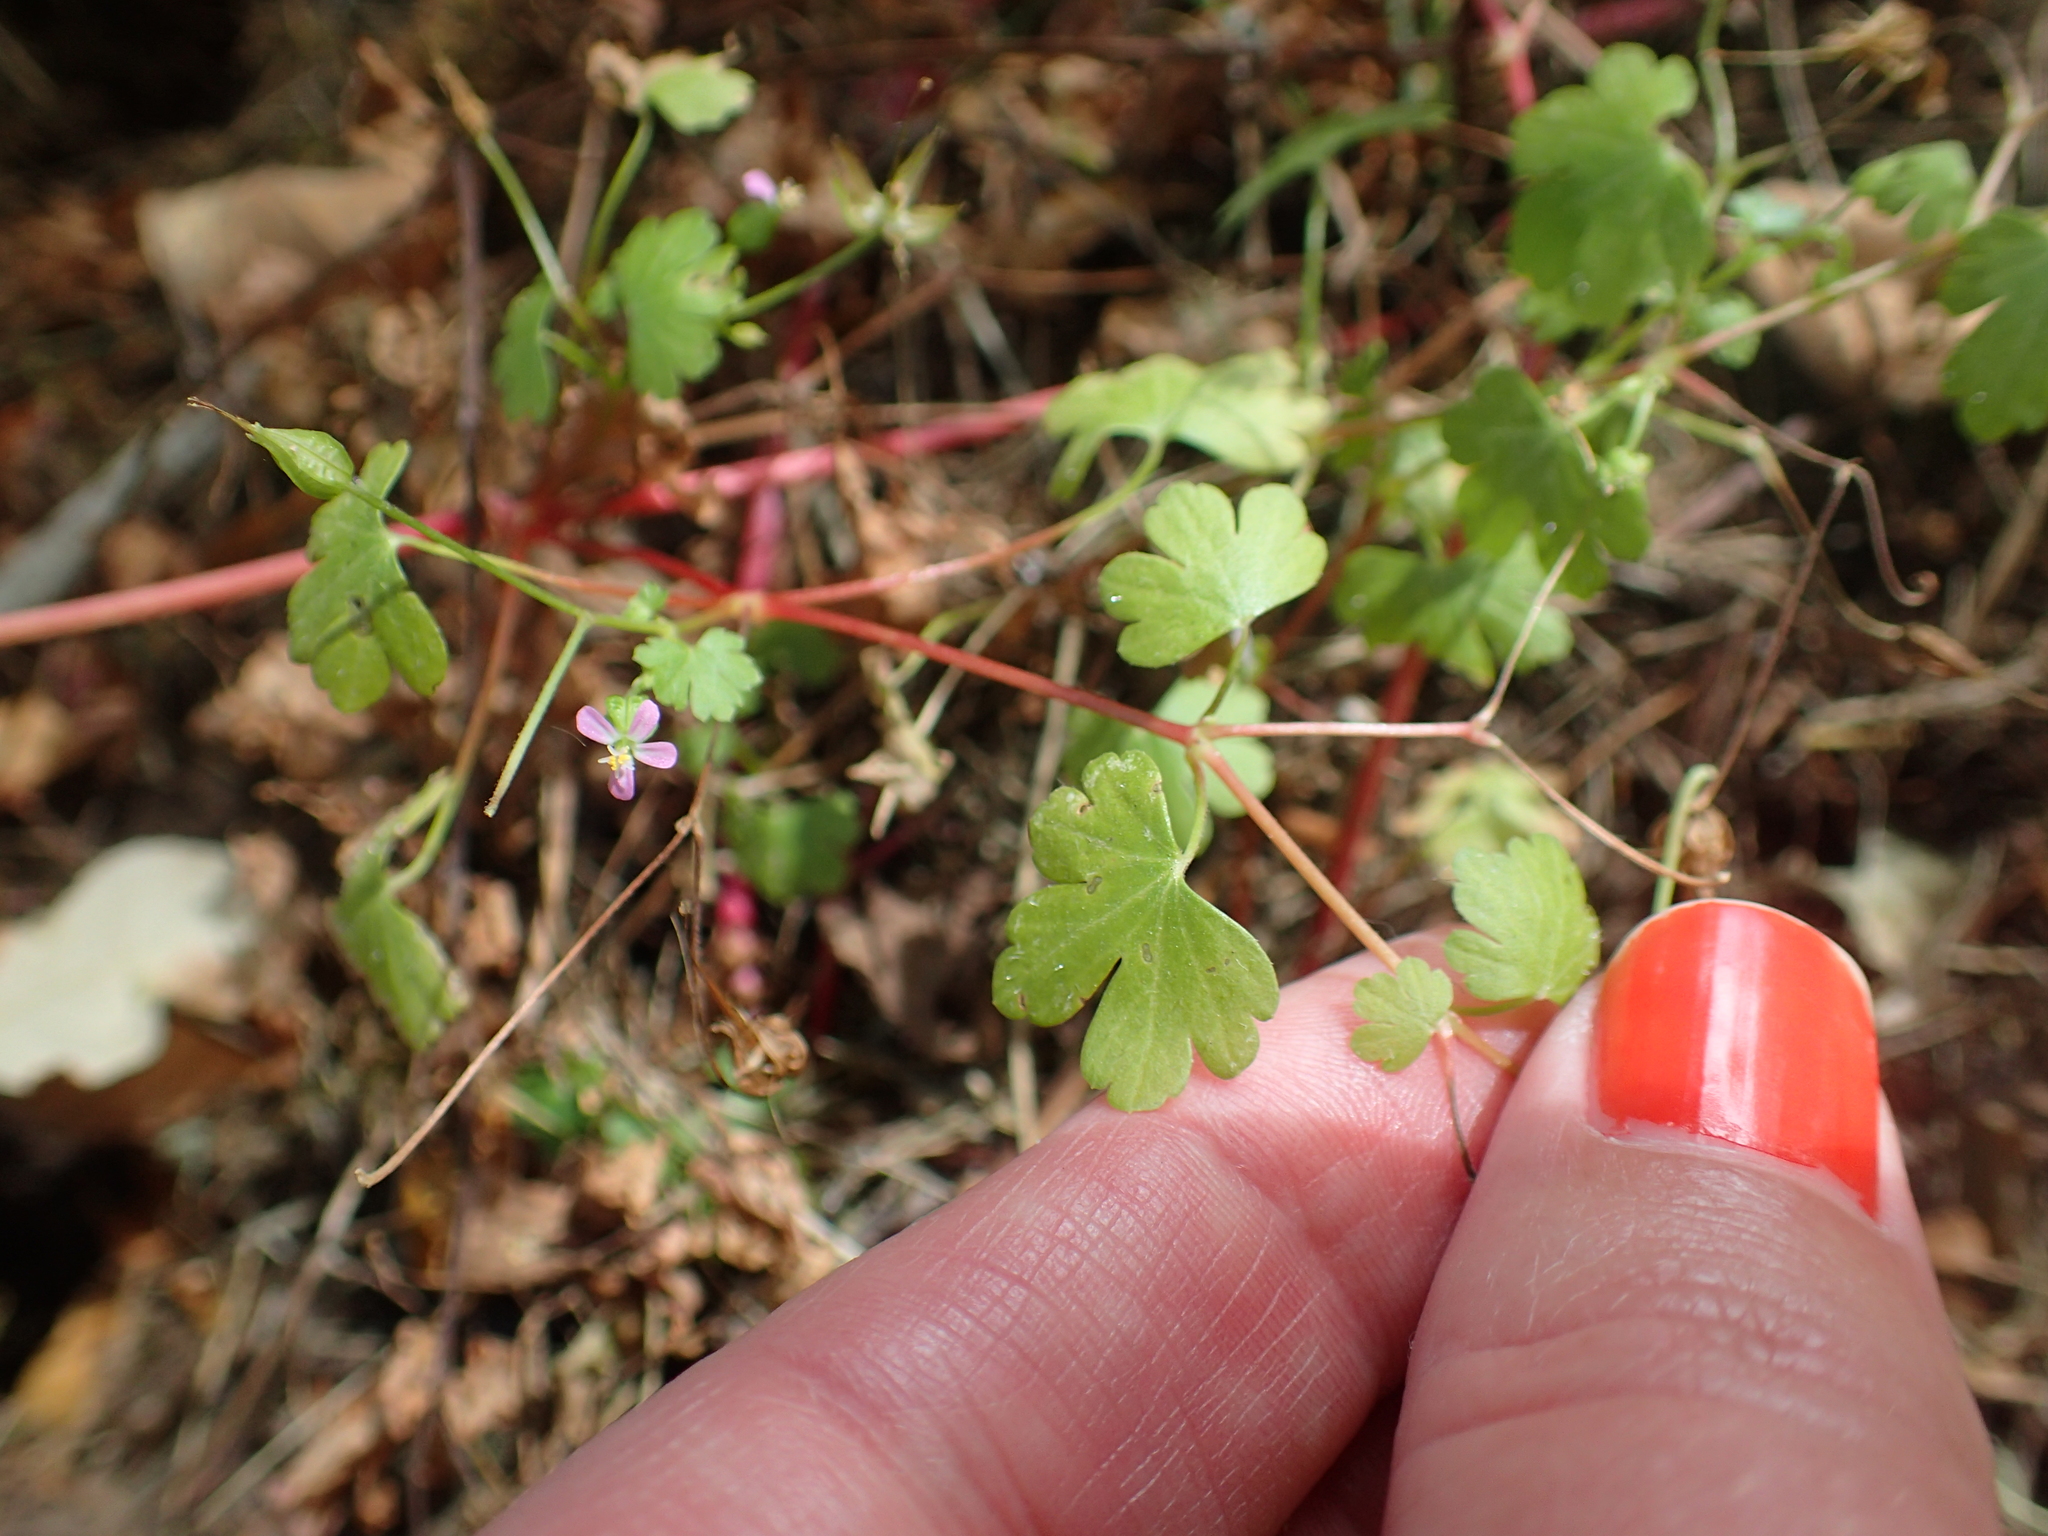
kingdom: Plantae
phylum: Tracheophyta
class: Magnoliopsida
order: Geraniales
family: Geraniaceae
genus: Geranium
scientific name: Geranium lucidum
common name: Shining crane's-bill
